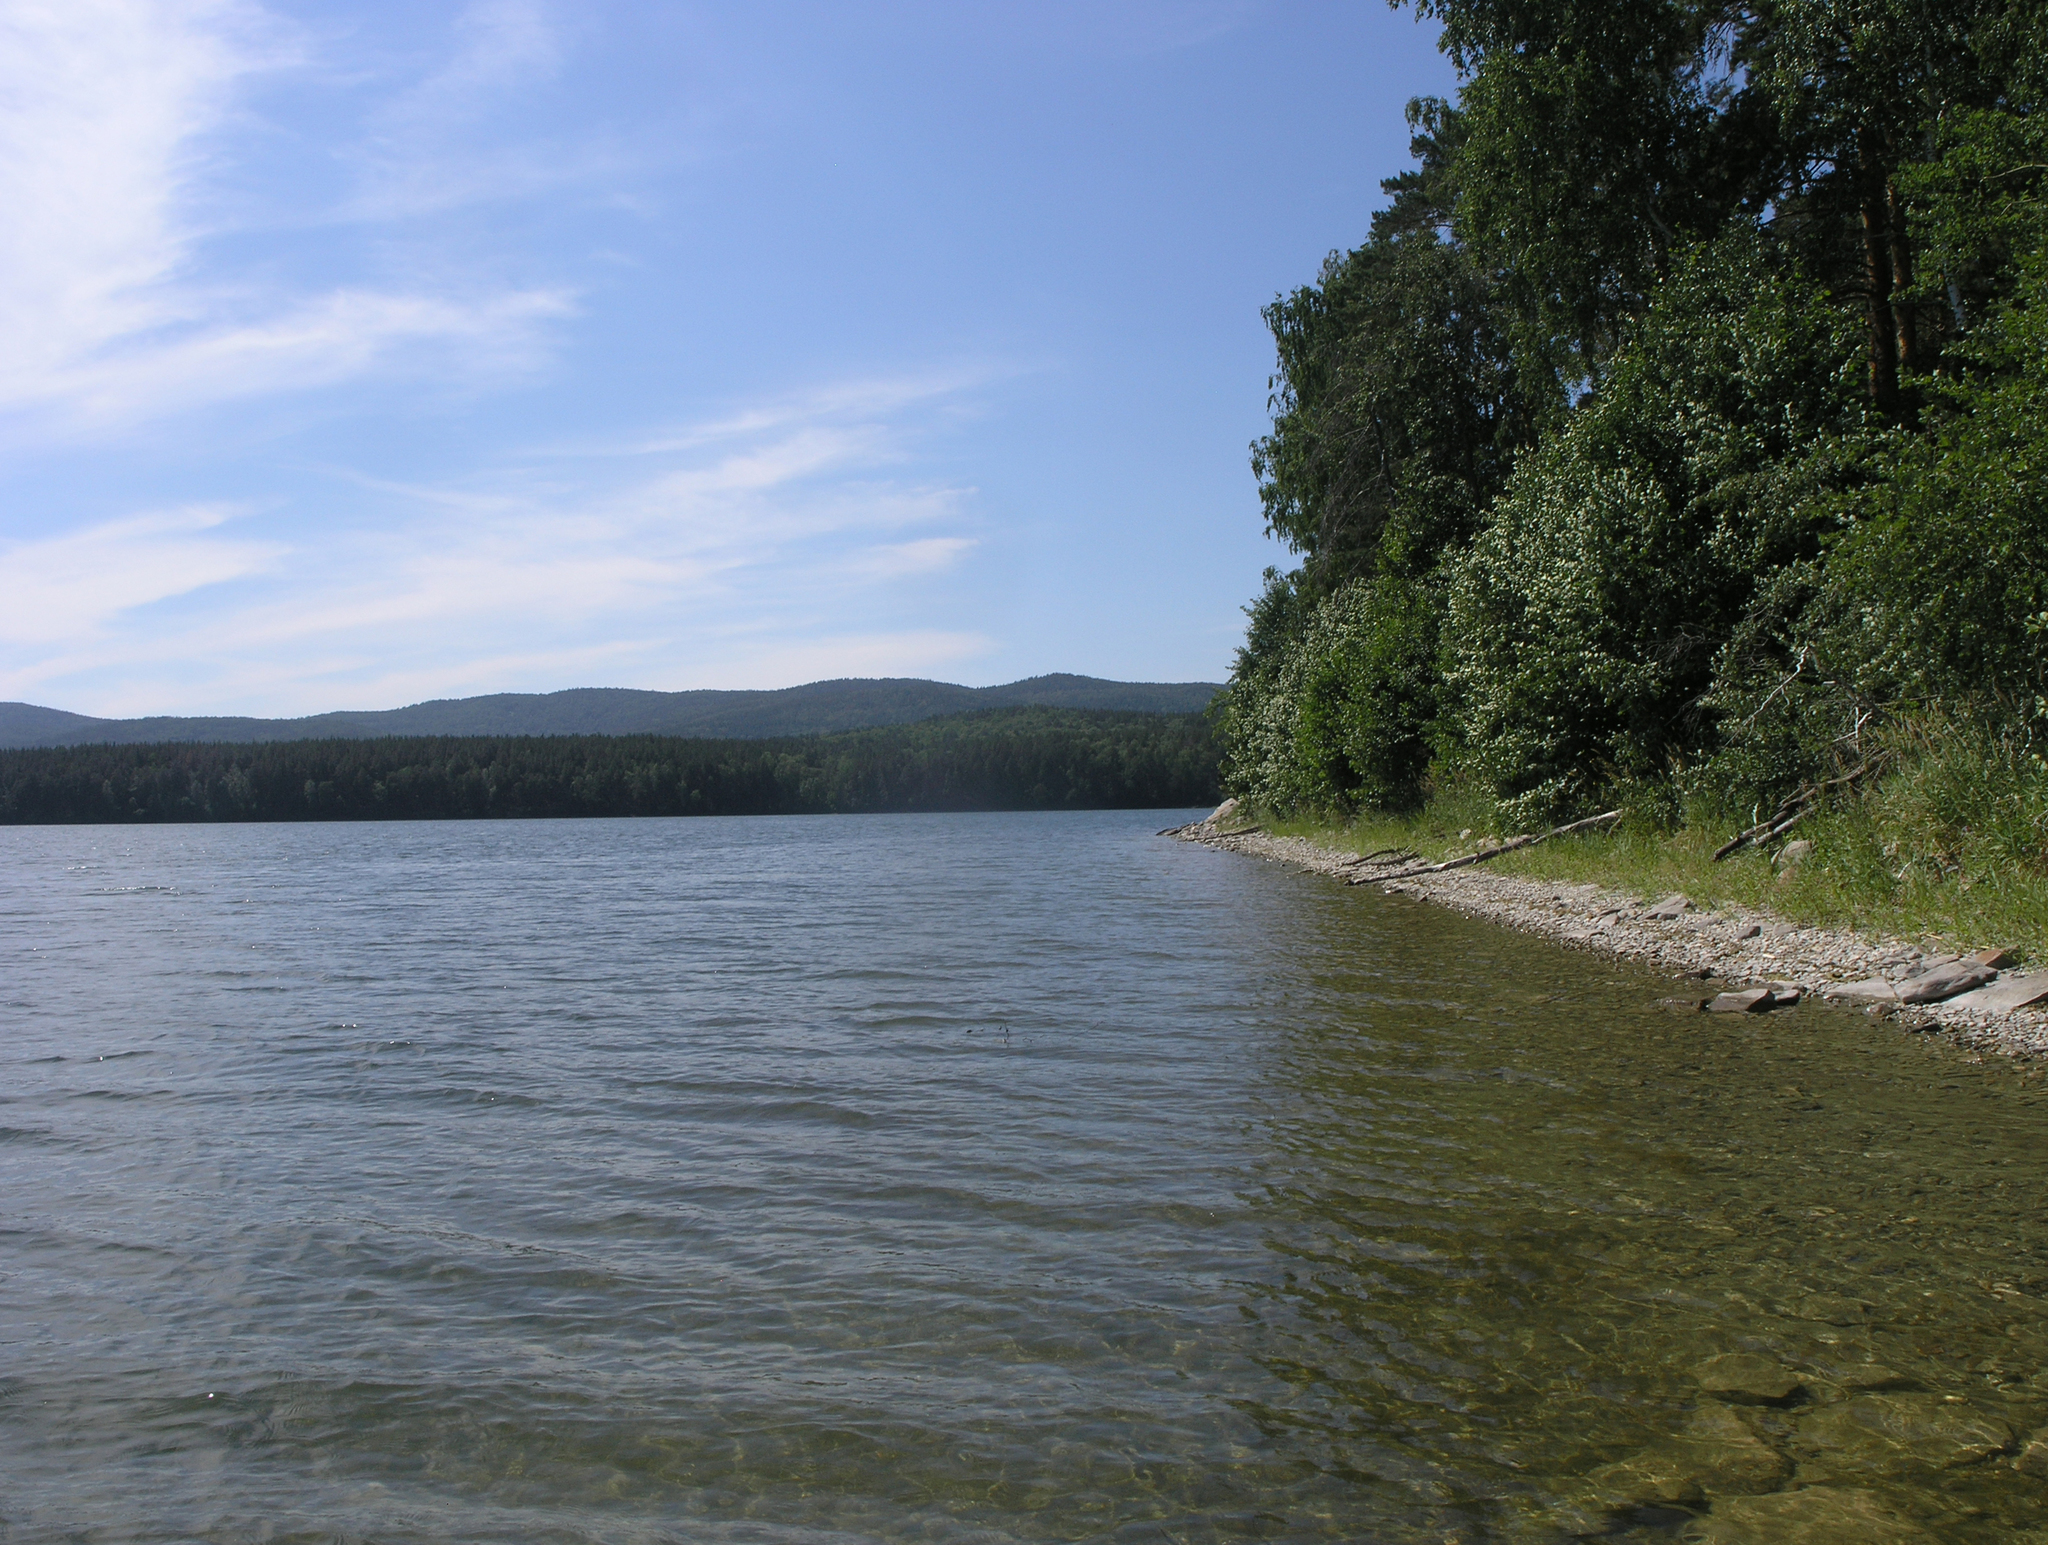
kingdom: Plantae
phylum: Tracheophyta
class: Magnoliopsida
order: Fagales
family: Betulaceae
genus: Alnus
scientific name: Alnus glutinosa
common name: Black alder
